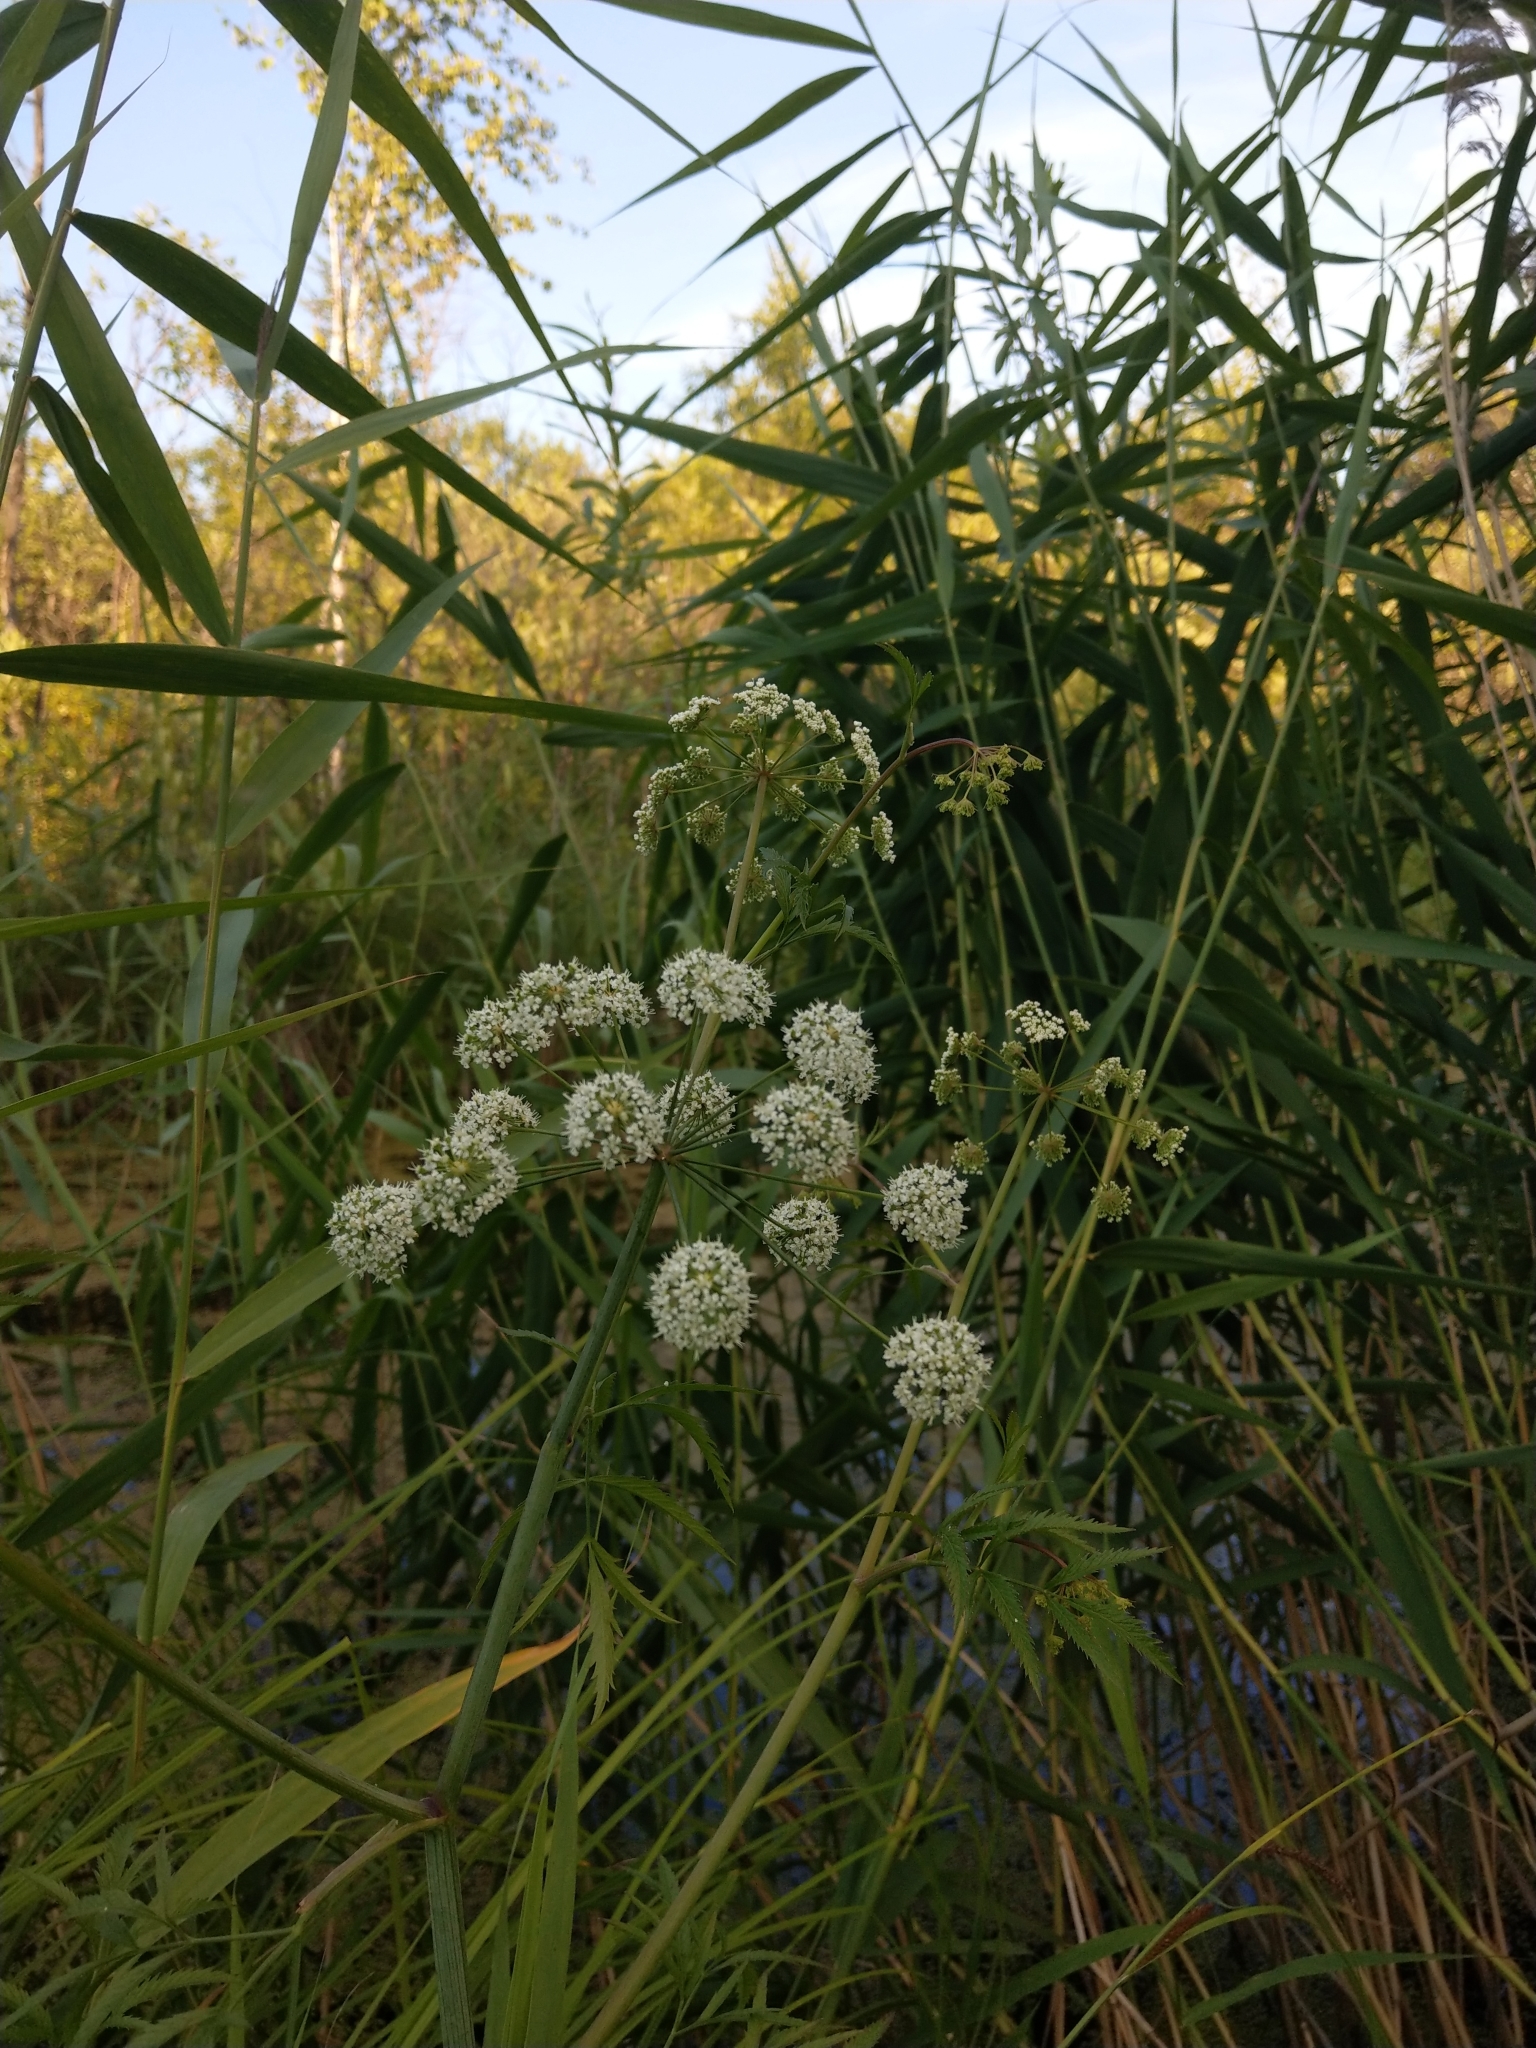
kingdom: Plantae
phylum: Tracheophyta
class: Magnoliopsida
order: Apiales
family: Apiaceae
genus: Cicuta
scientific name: Cicuta virosa
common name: Cowbane
